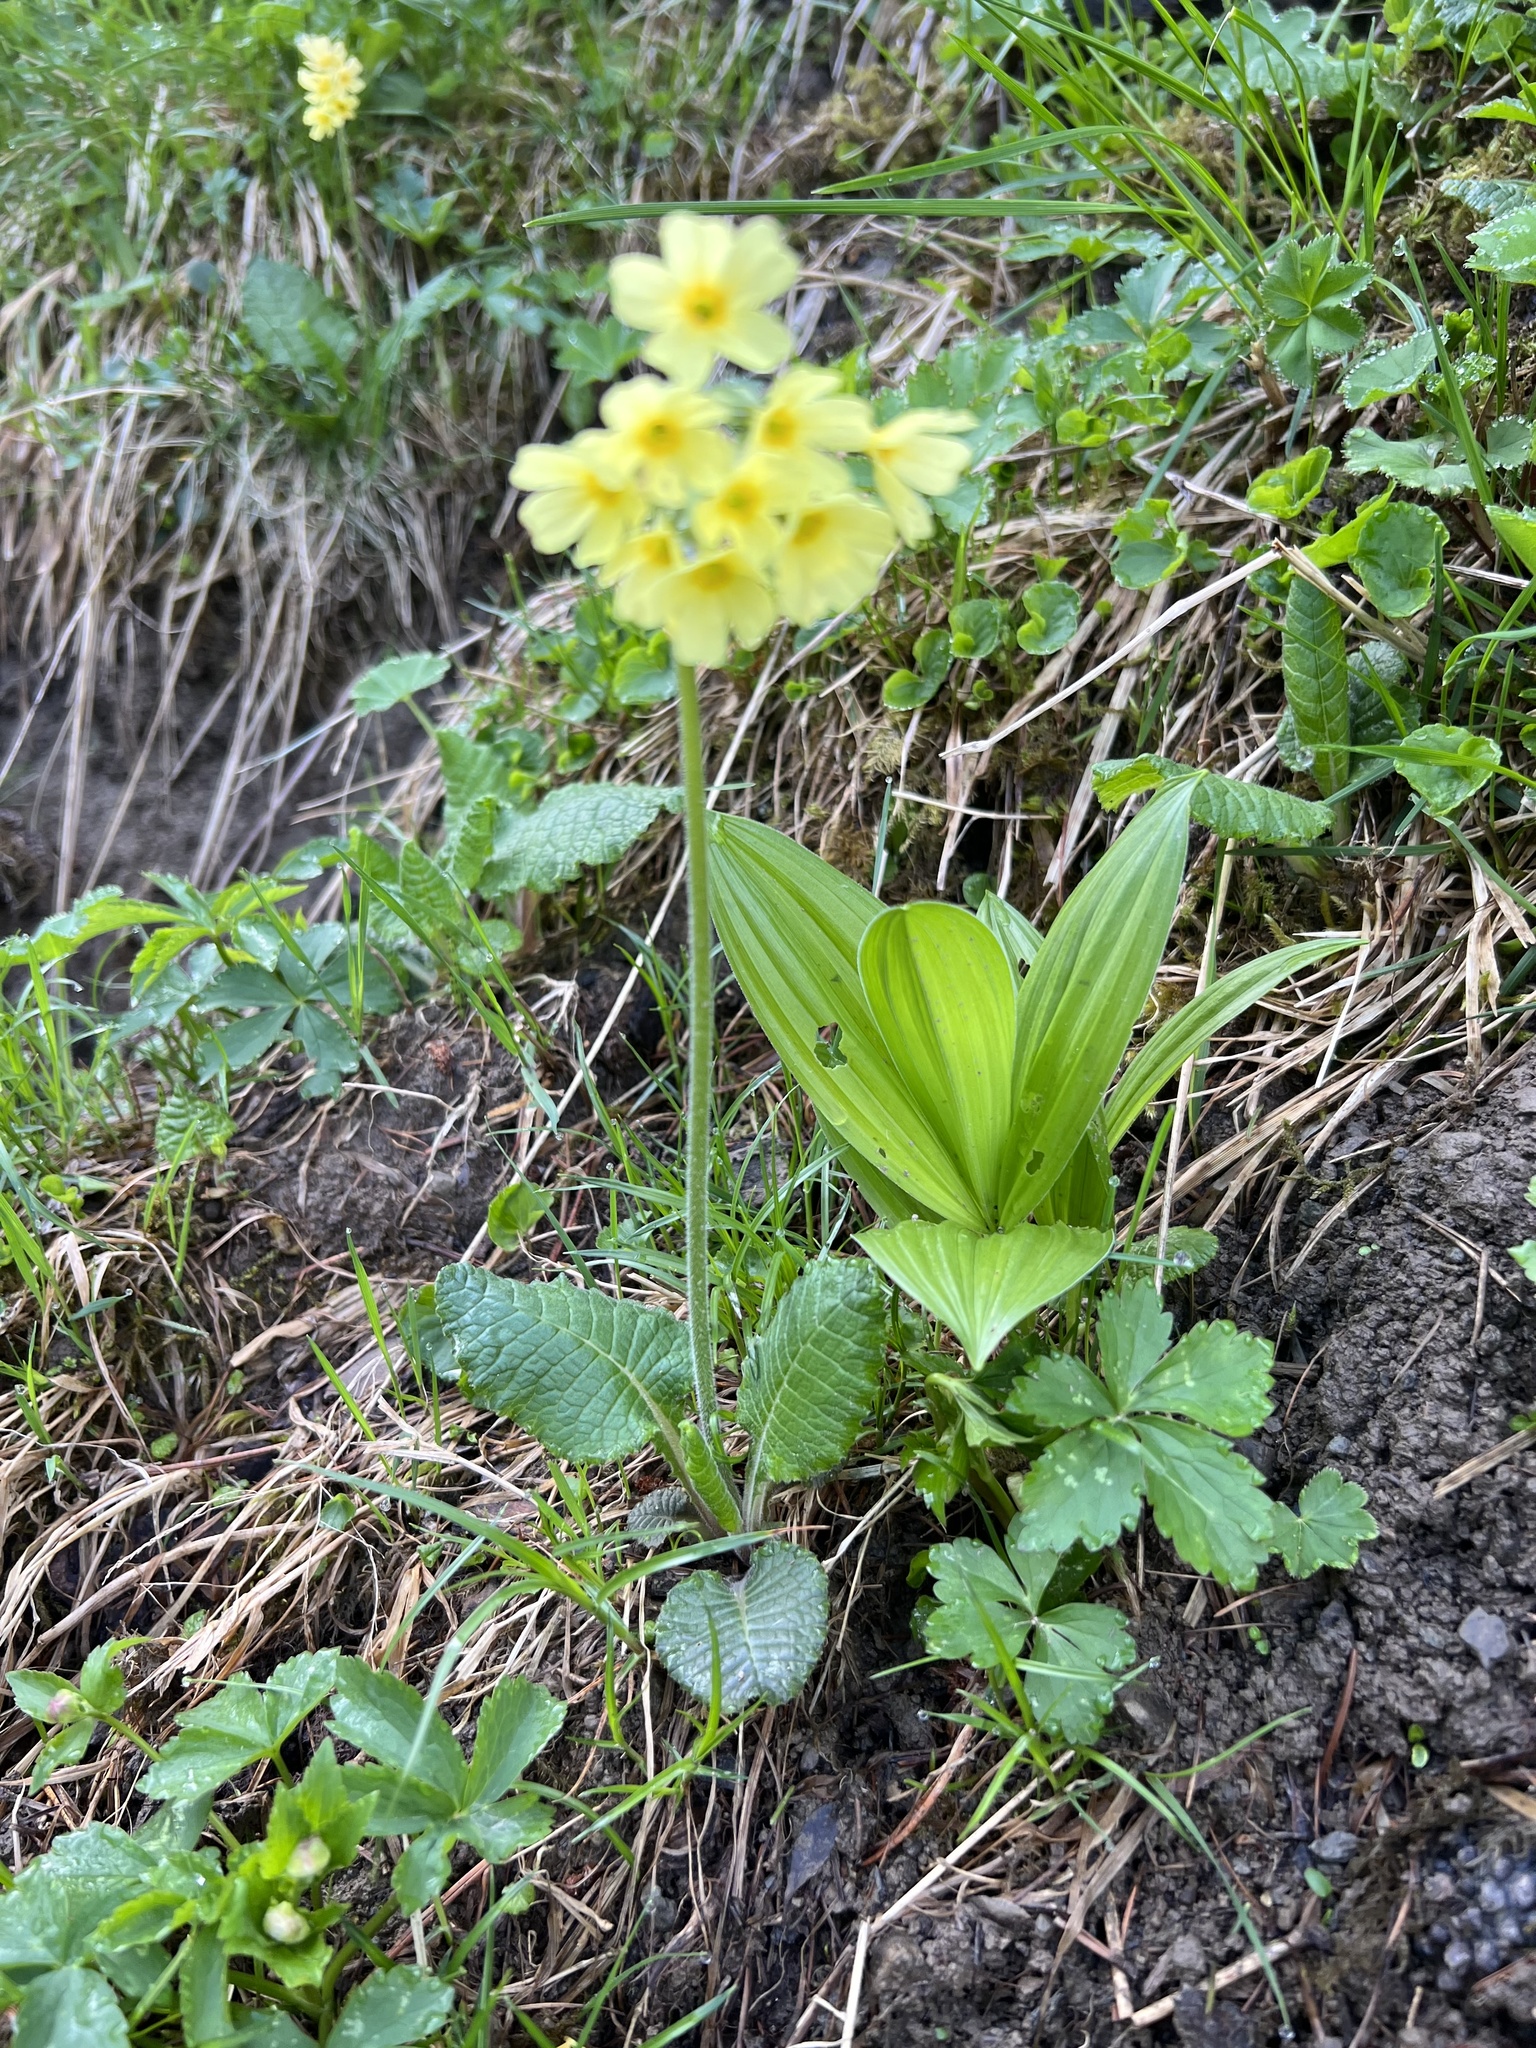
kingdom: Plantae
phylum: Tracheophyta
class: Magnoliopsida
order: Ericales
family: Primulaceae
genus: Primula
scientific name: Primula vulgaris
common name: Primrose
